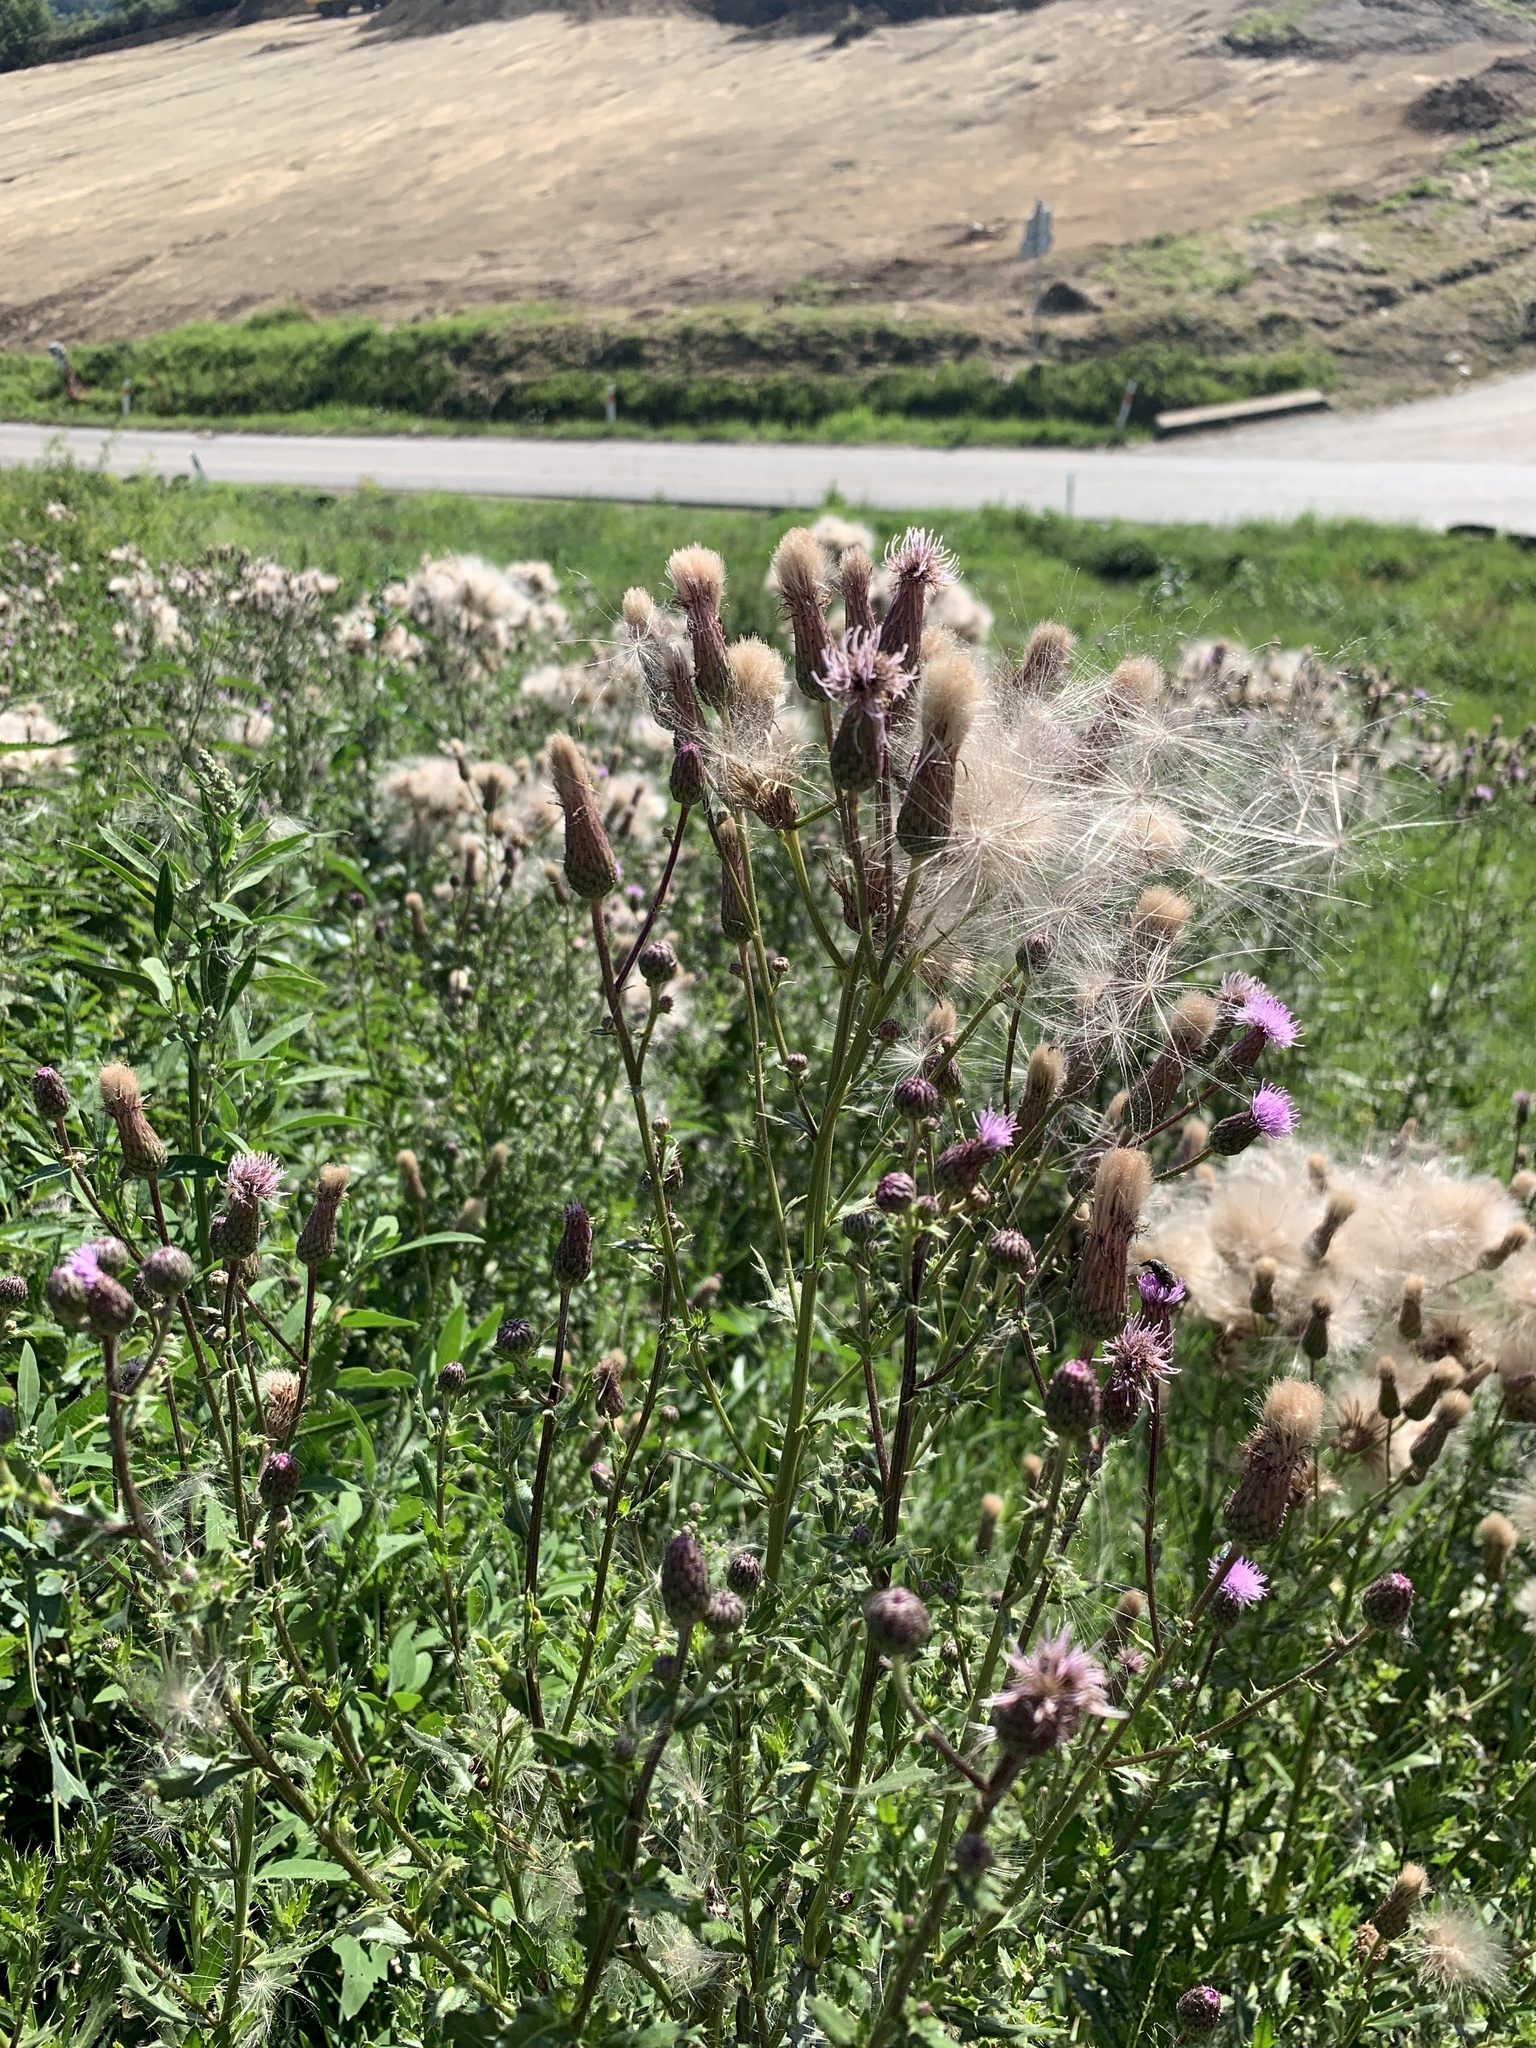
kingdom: Plantae
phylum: Tracheophyta
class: Magnoliopsida
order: Asterales
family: Asteraceae
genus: Cirsium
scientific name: Cirsium arvense
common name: Creeping thistle
